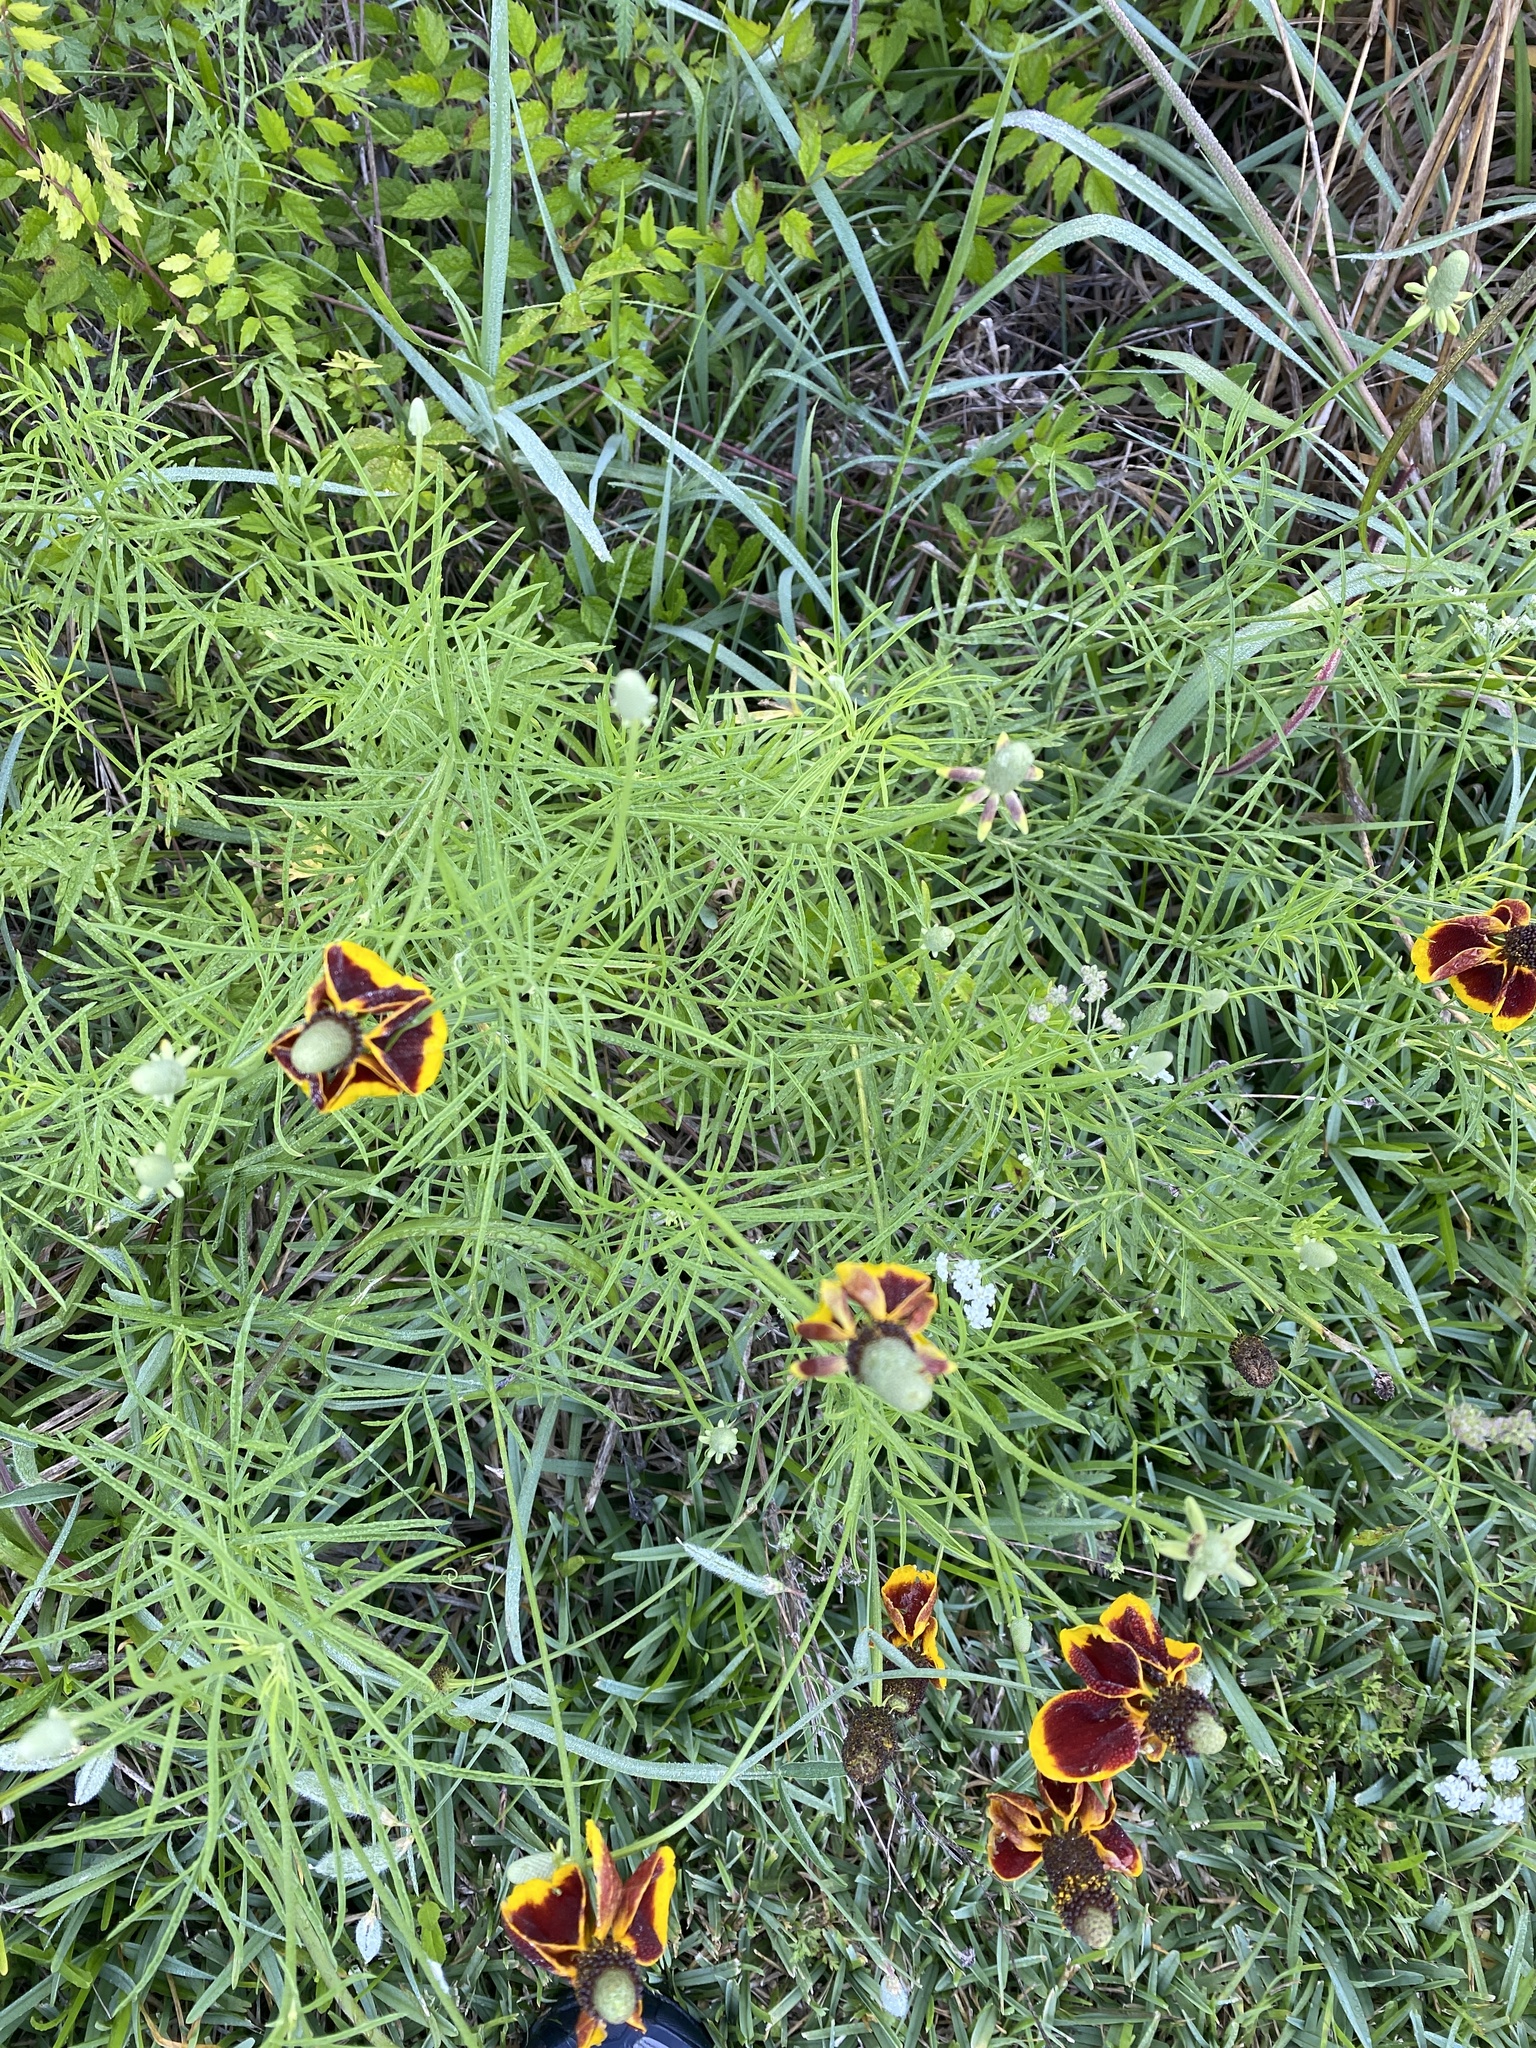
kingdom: Plantae
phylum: Tracheophyta
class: Magnoliopsida
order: Asterales
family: Asteraceae
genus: Ratibida
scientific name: Ratibida columnifera
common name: Prairie coneflower
